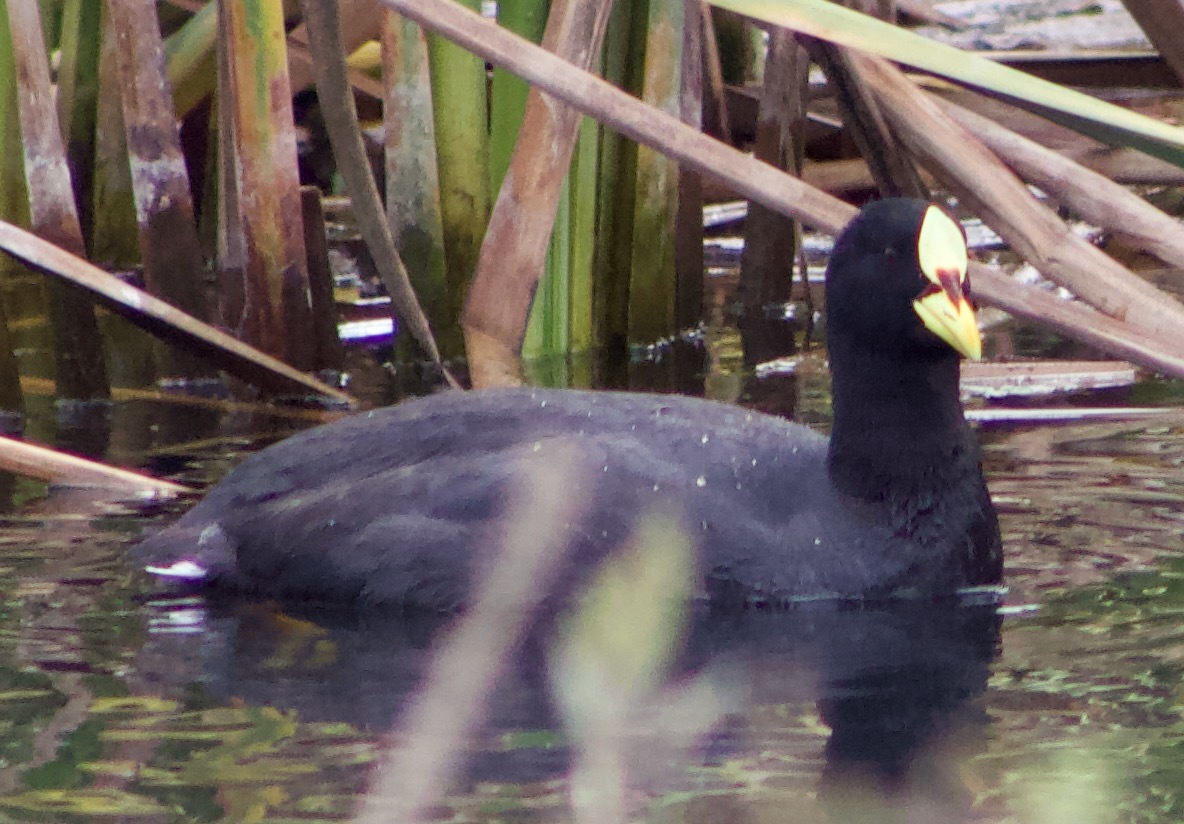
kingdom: Animalia
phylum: Chordata
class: Aves
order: Gruiformes
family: Rallidae
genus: Fulica
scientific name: Fulica armillata
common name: Red-gartered coot
